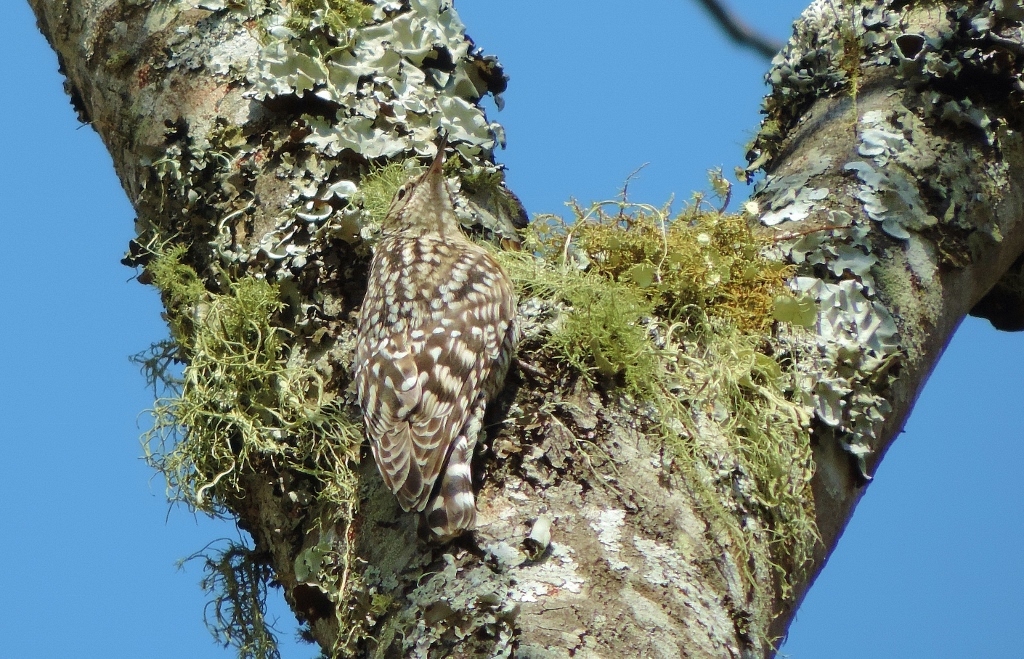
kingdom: Animalia
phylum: Chordata
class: Aves
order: Passeriformes
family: Certhiidae
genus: Salpornis
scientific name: Salpornis salvadori
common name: African spotted creeper
